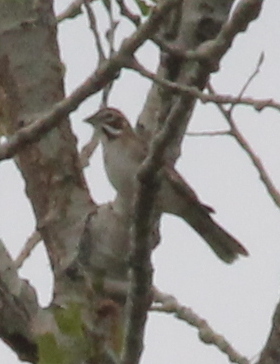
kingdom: Animalia
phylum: Chordata
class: Aves
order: Passeriformes
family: Passerellidae
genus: Chondestes
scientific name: Chondestes grammacus
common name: Lark sparrow
